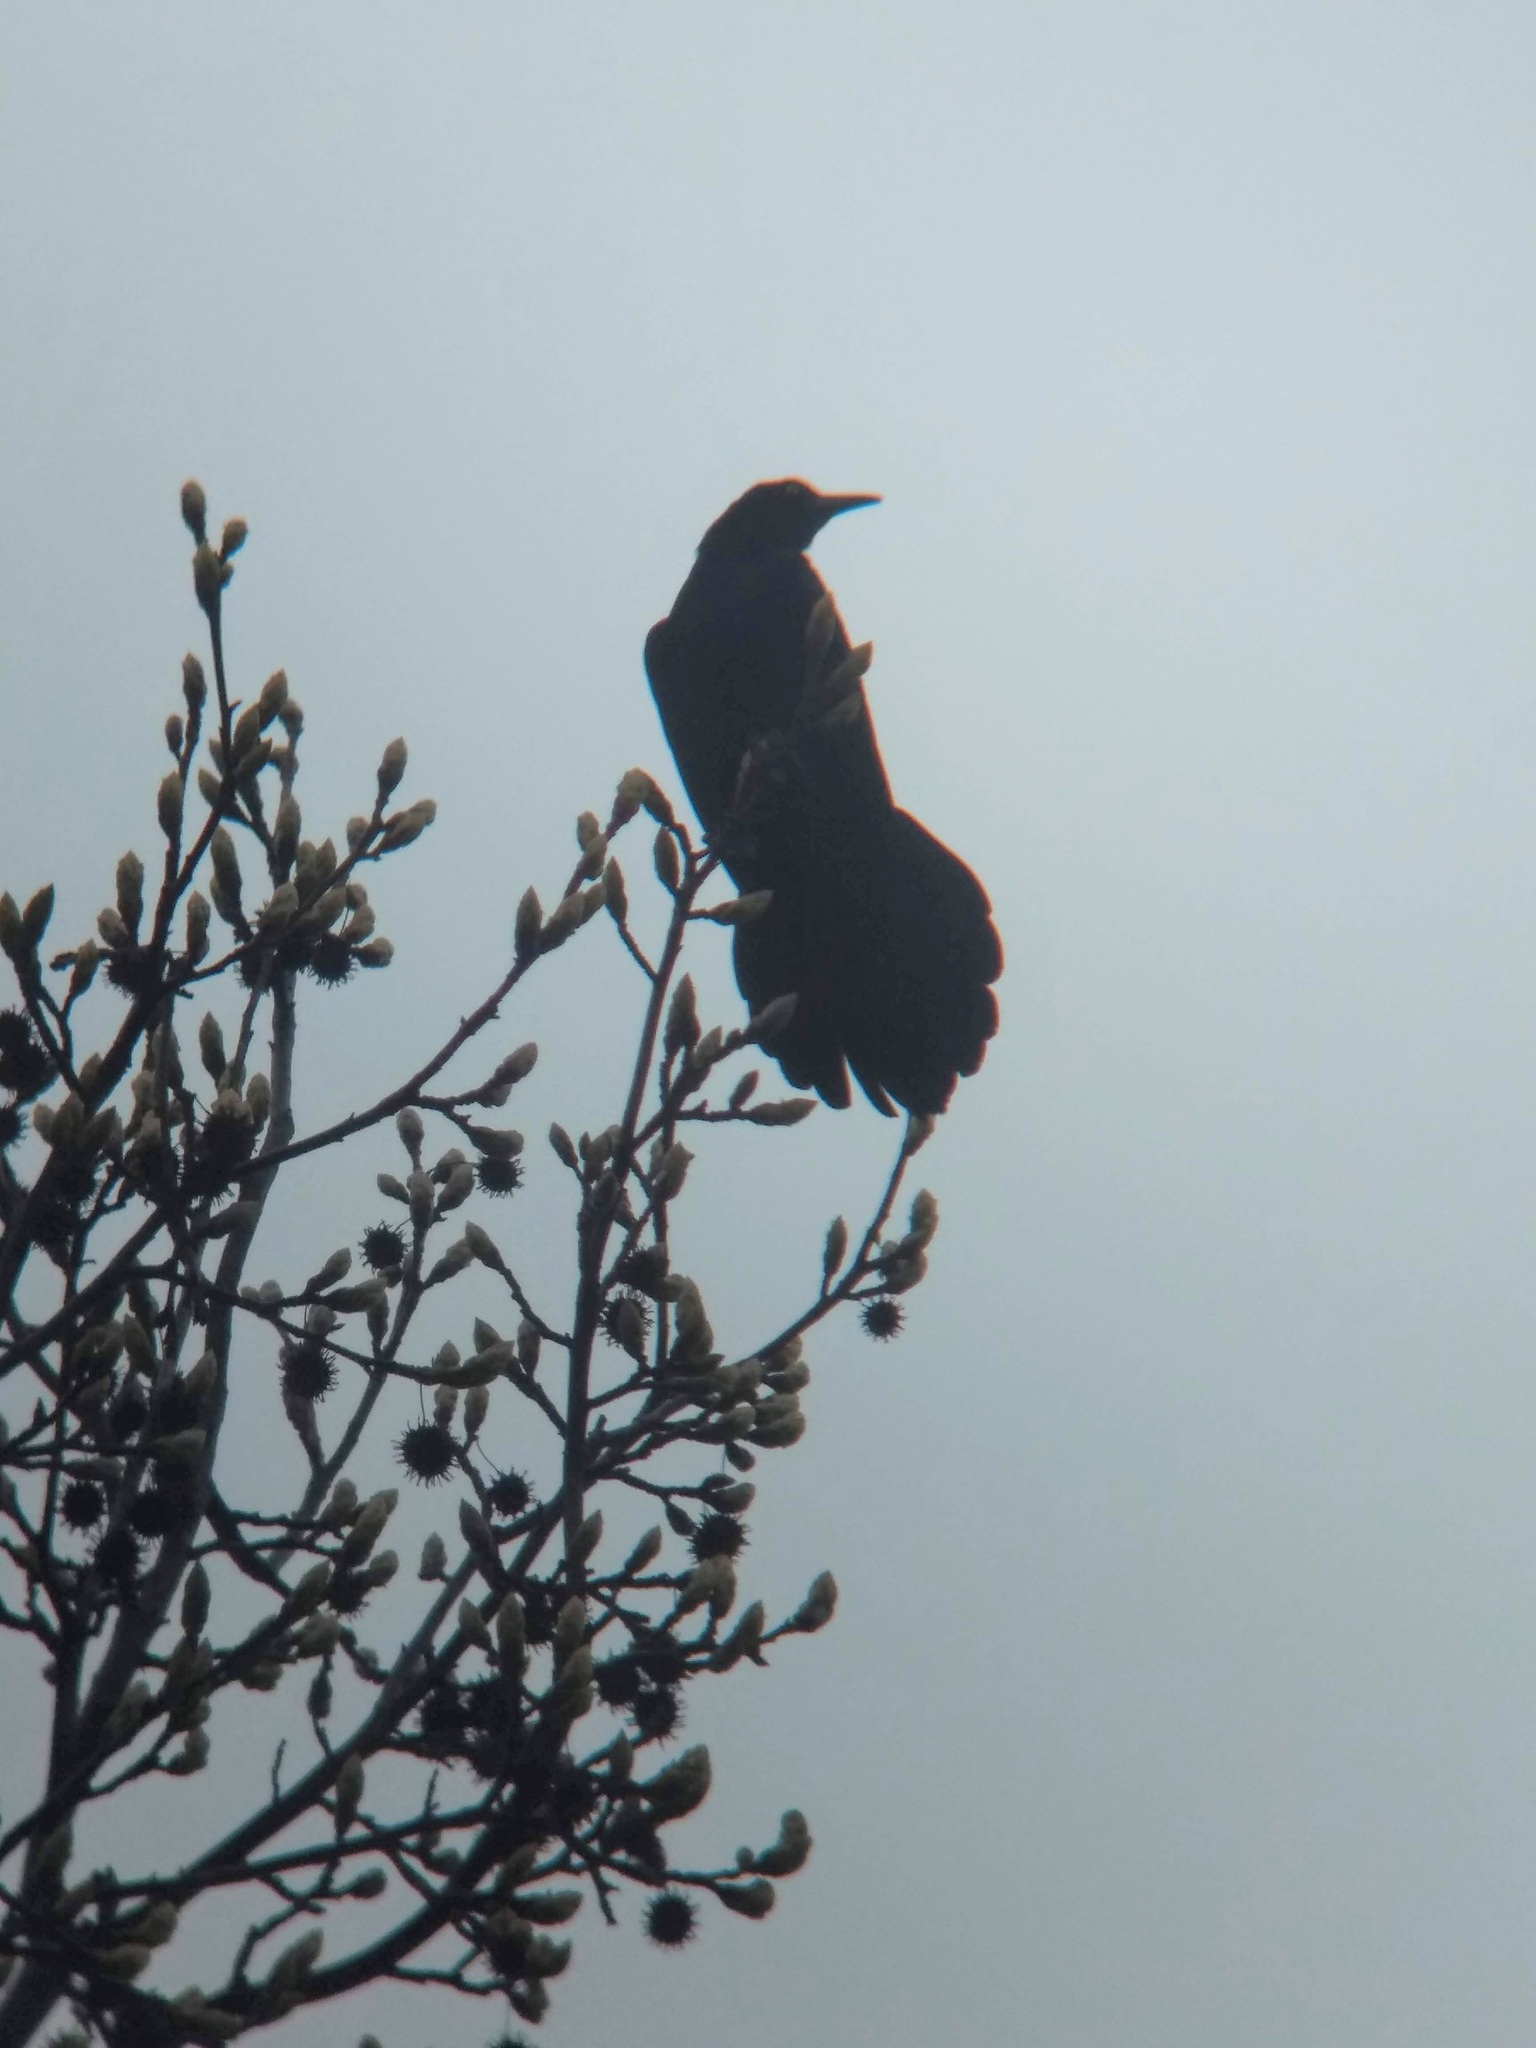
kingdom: Animalia
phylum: Chordata
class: Aves
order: Passeriformes
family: Icteridae
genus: Quiscalus
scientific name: Quiscalus mexicanus
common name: Great-tailed grackle
